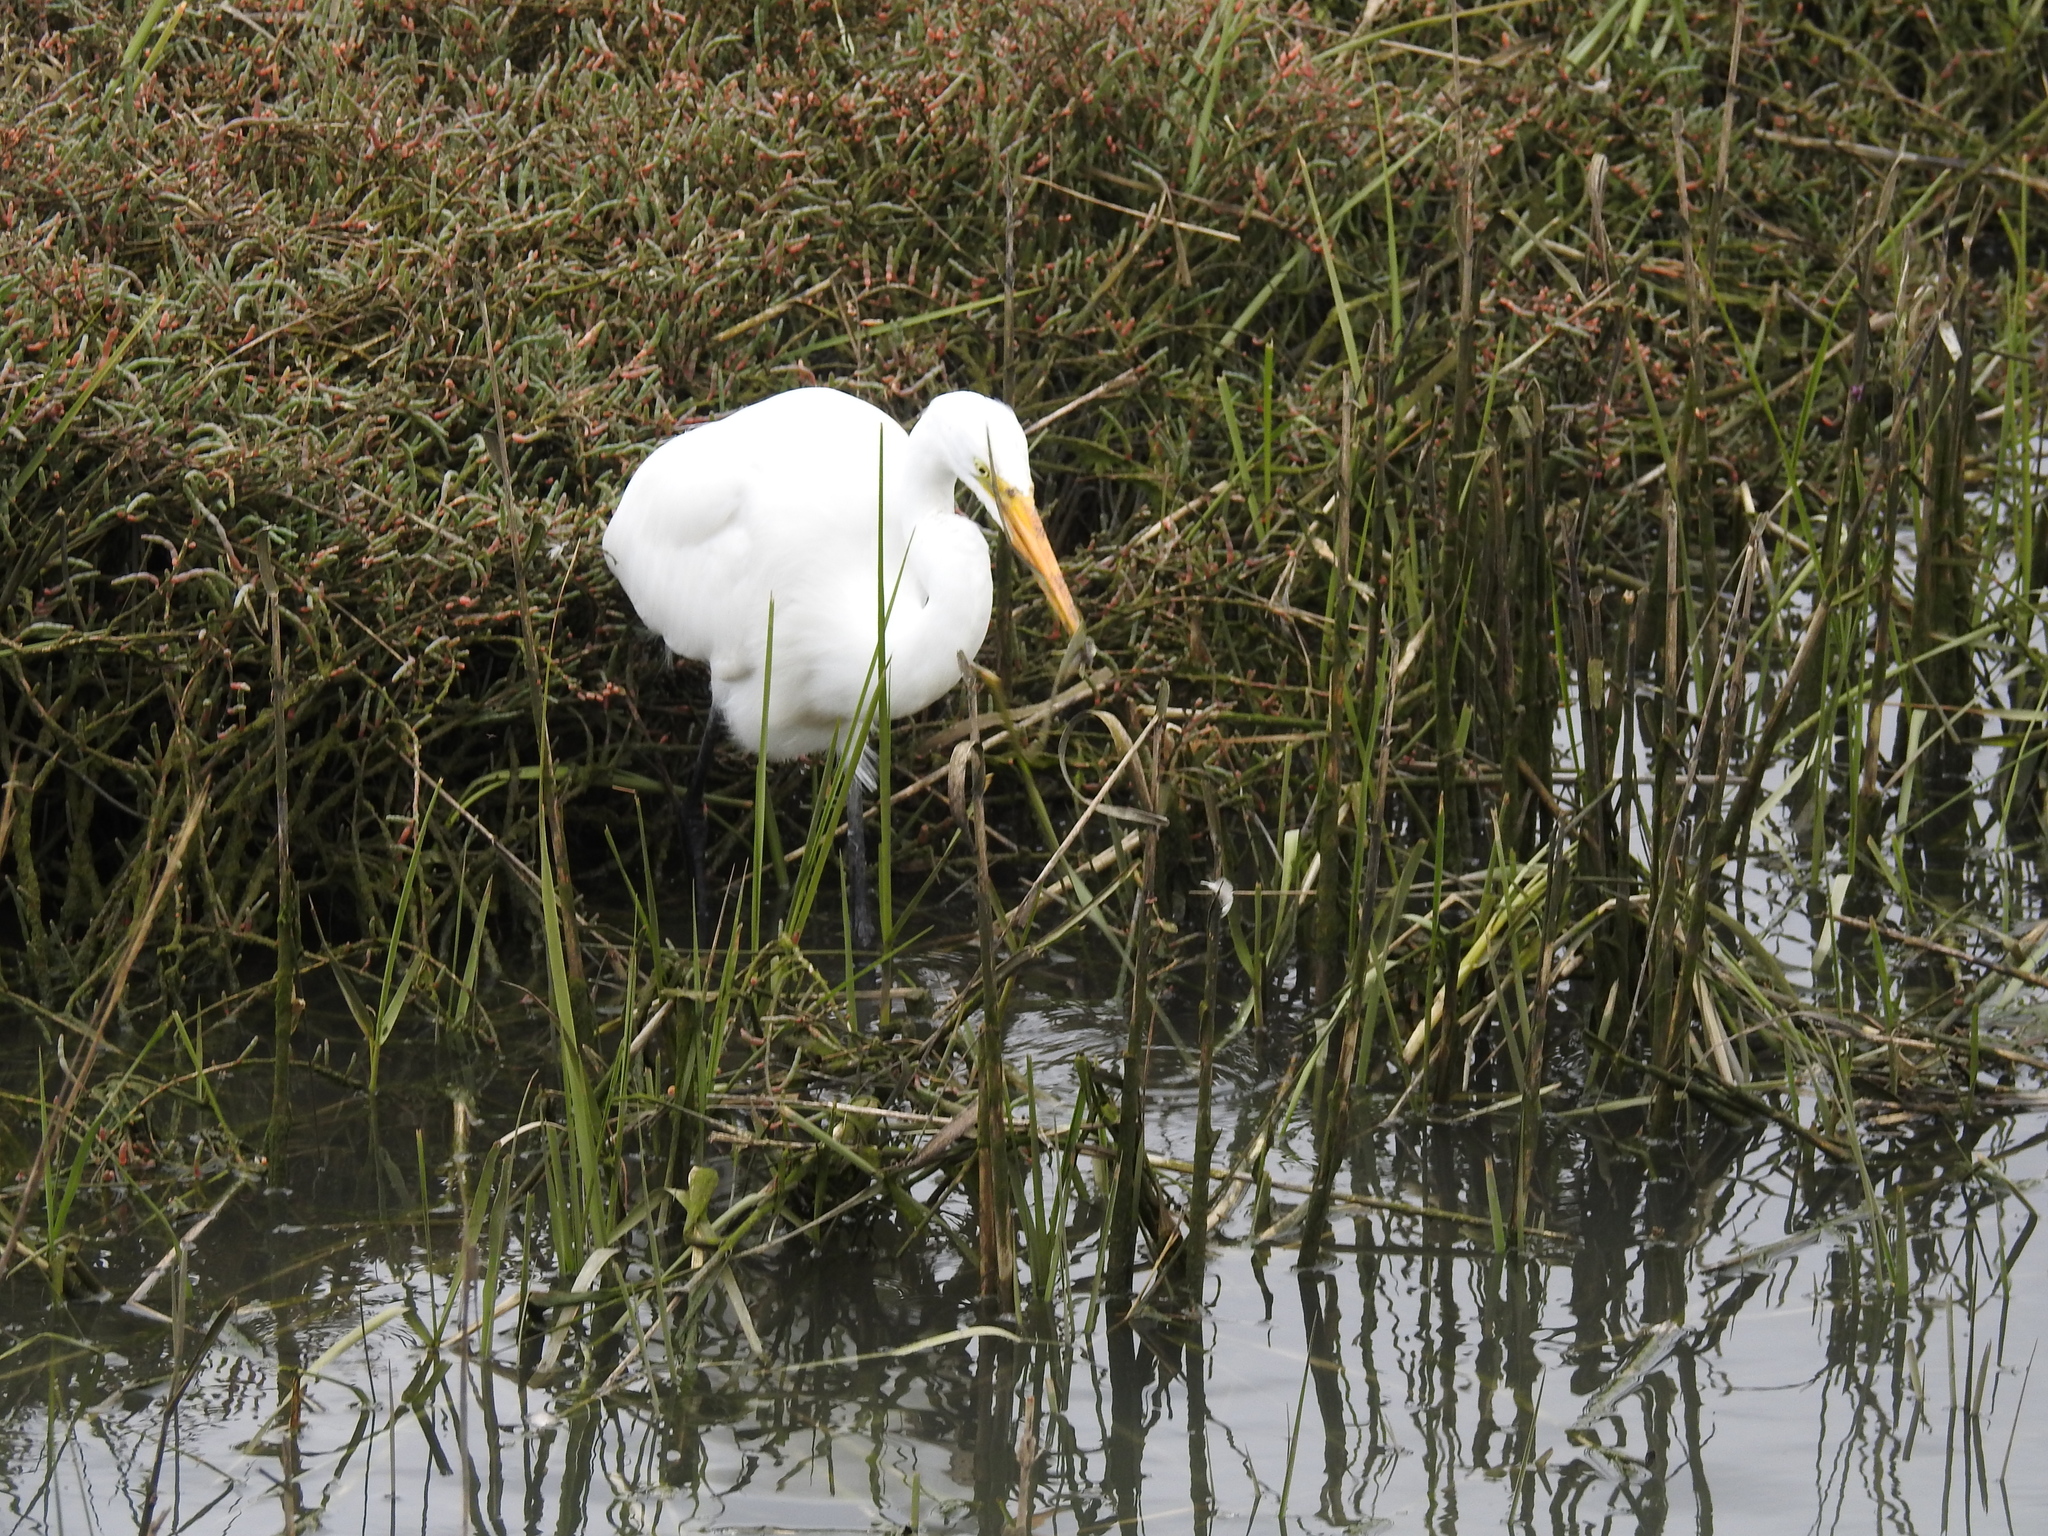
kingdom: Animalia
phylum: Chordata
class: Aves
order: Pelecaniformes
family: Ardeidae
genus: Ardea
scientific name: Ardea alba
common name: Great egret
